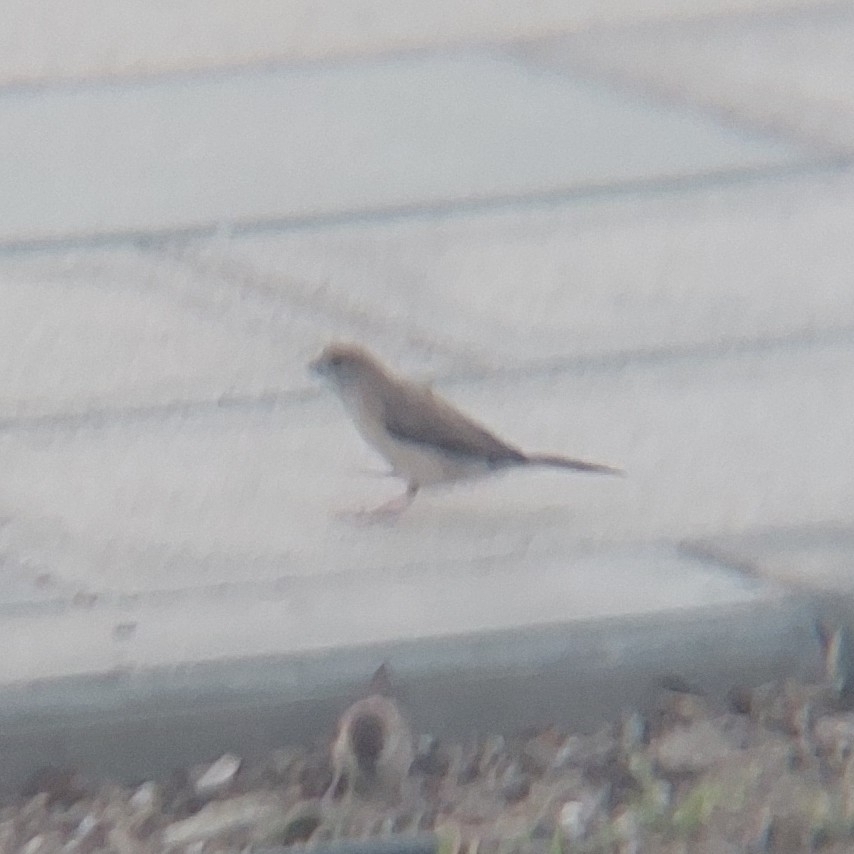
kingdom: Animalia
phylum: Chordata
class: Aves
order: Passeriformes
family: Estrildidae
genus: Euodice
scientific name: Euodice malabarica
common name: Indian silverbill
